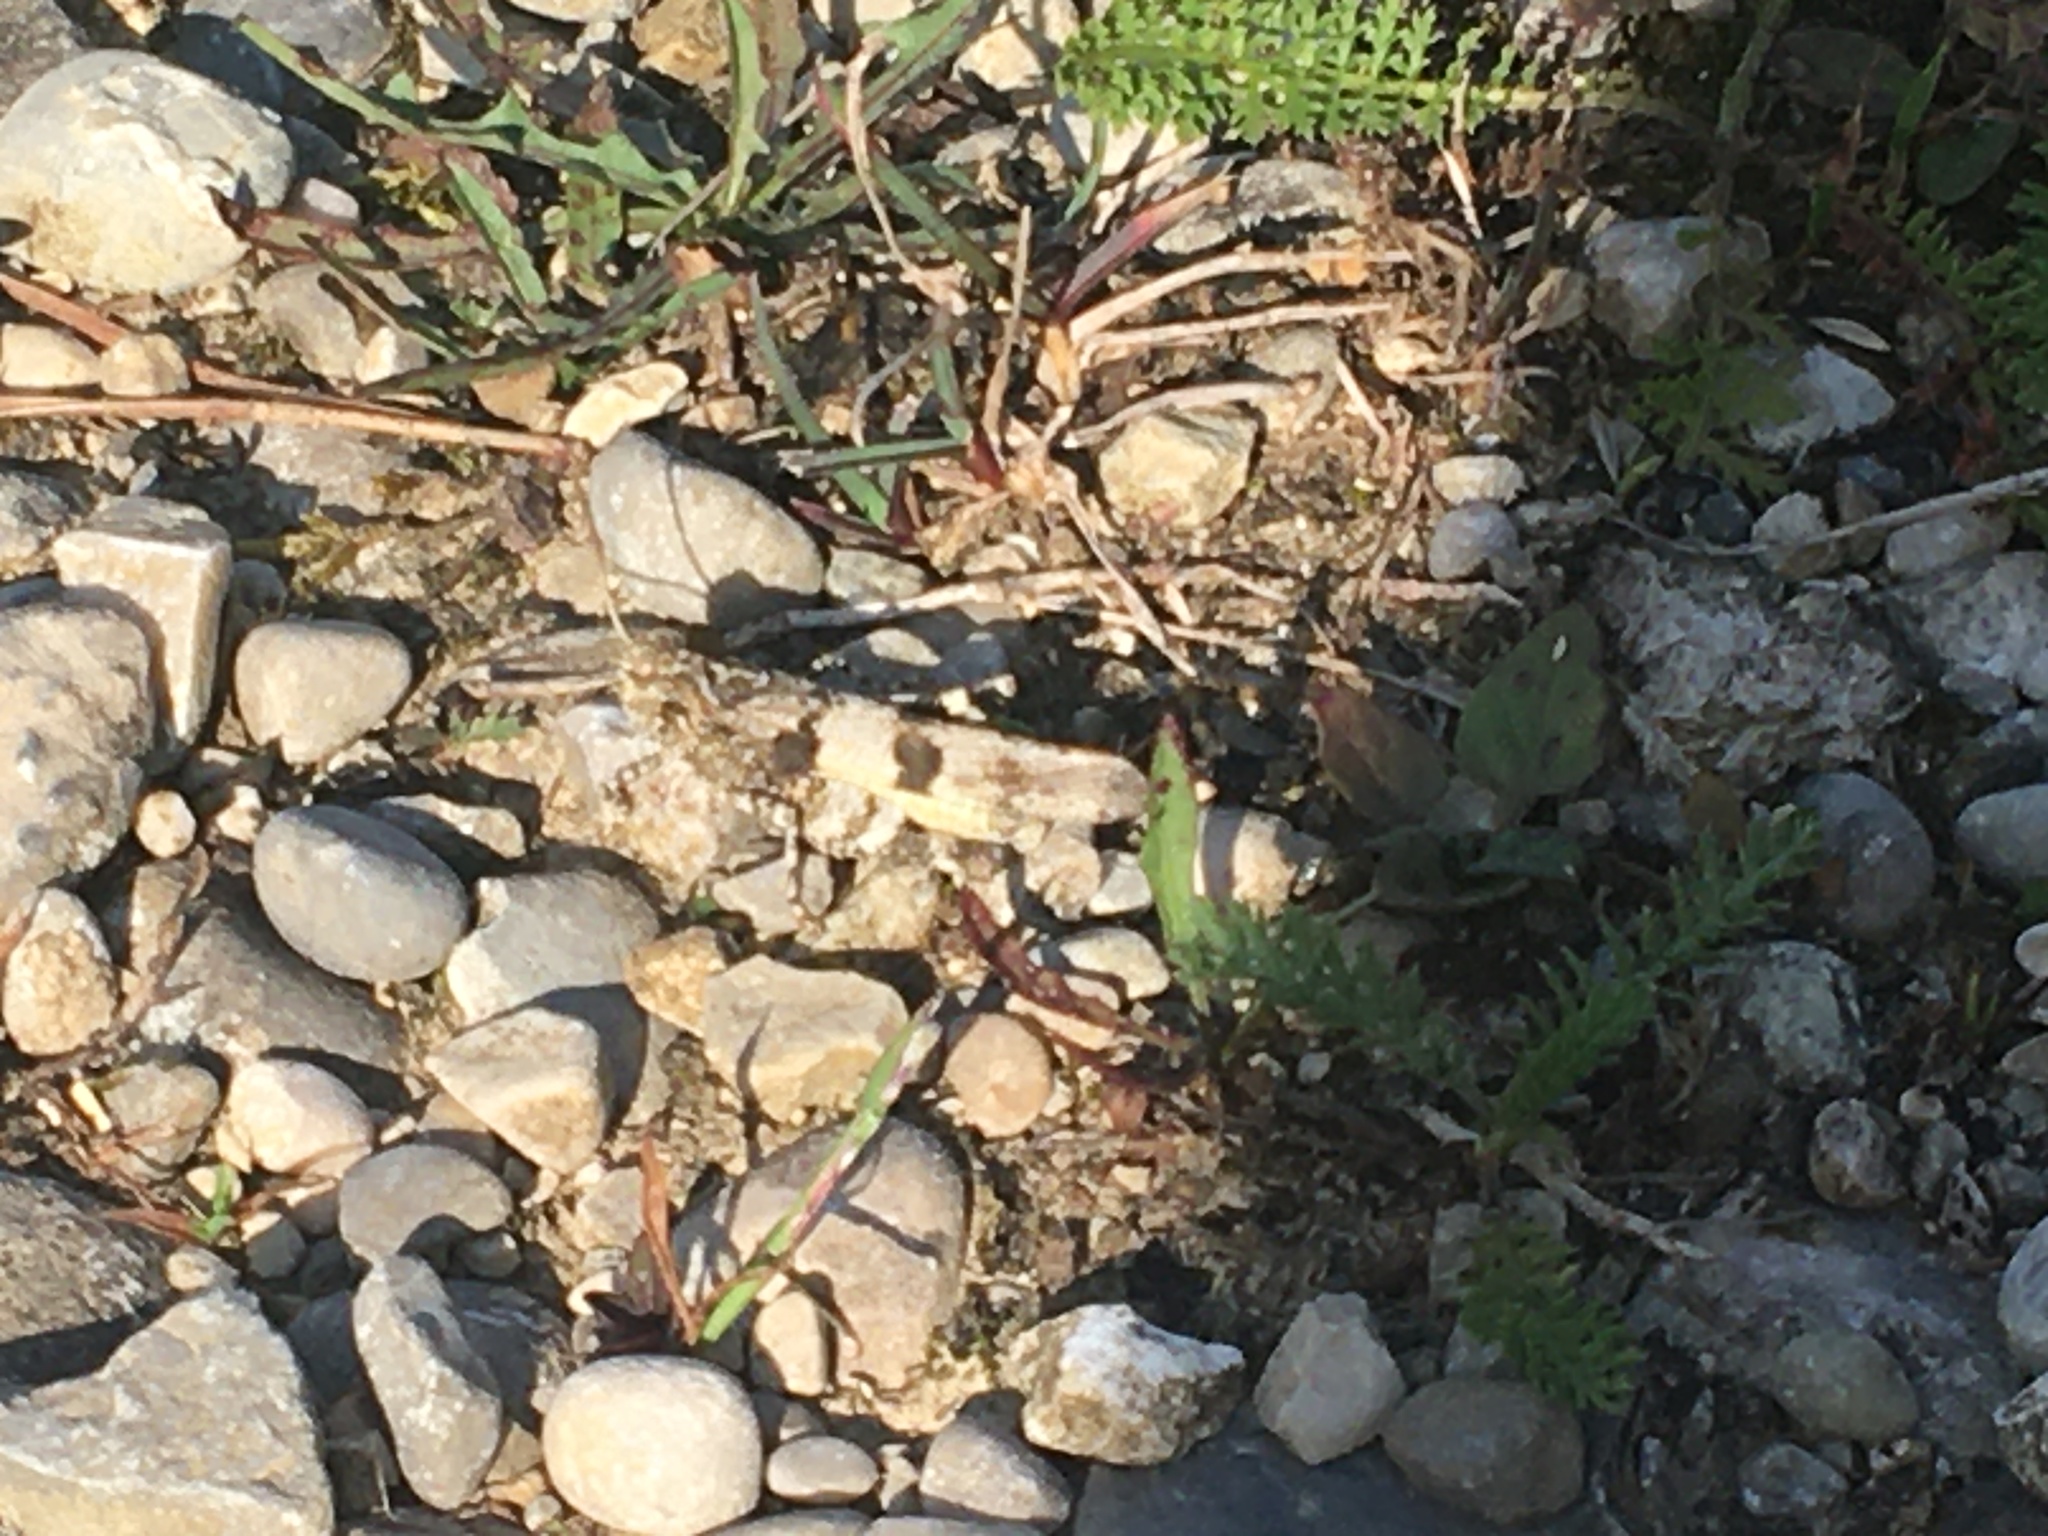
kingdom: Animalia
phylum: Arthropoda
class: Insecta
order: Orthoptera
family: Acrididae
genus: Oedipoda
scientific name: Oedipoda caerulescens
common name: Blue-winged grasshopper
